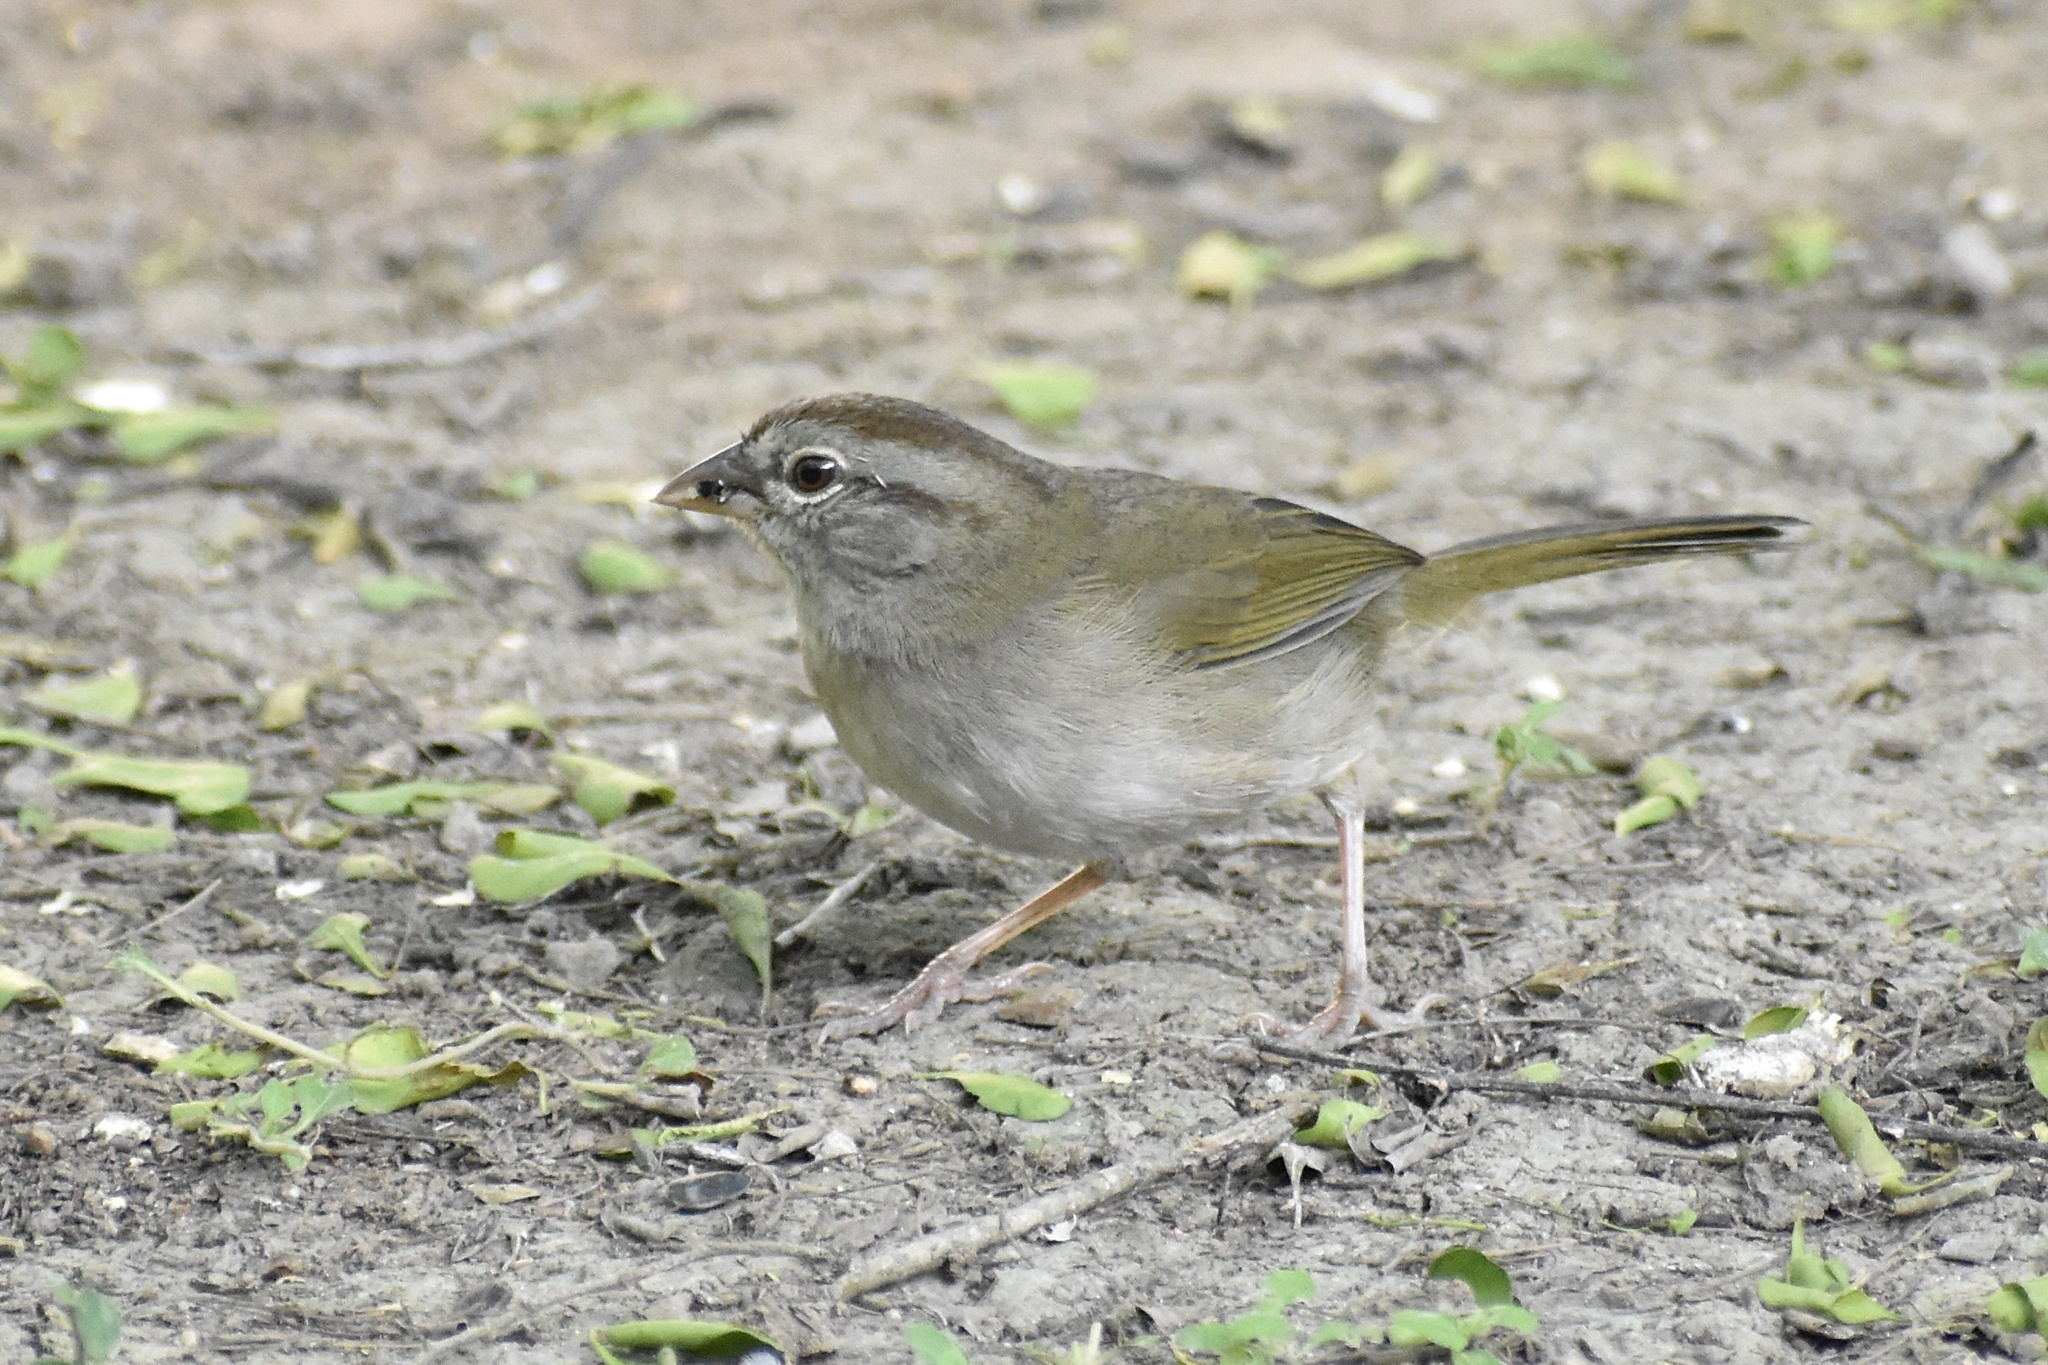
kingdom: Animalia
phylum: Chordata
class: Aves
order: Passeriformes
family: Passerellidae
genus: Arremonops
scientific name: Arremonops rufivirgatus
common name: Olive sparrow
